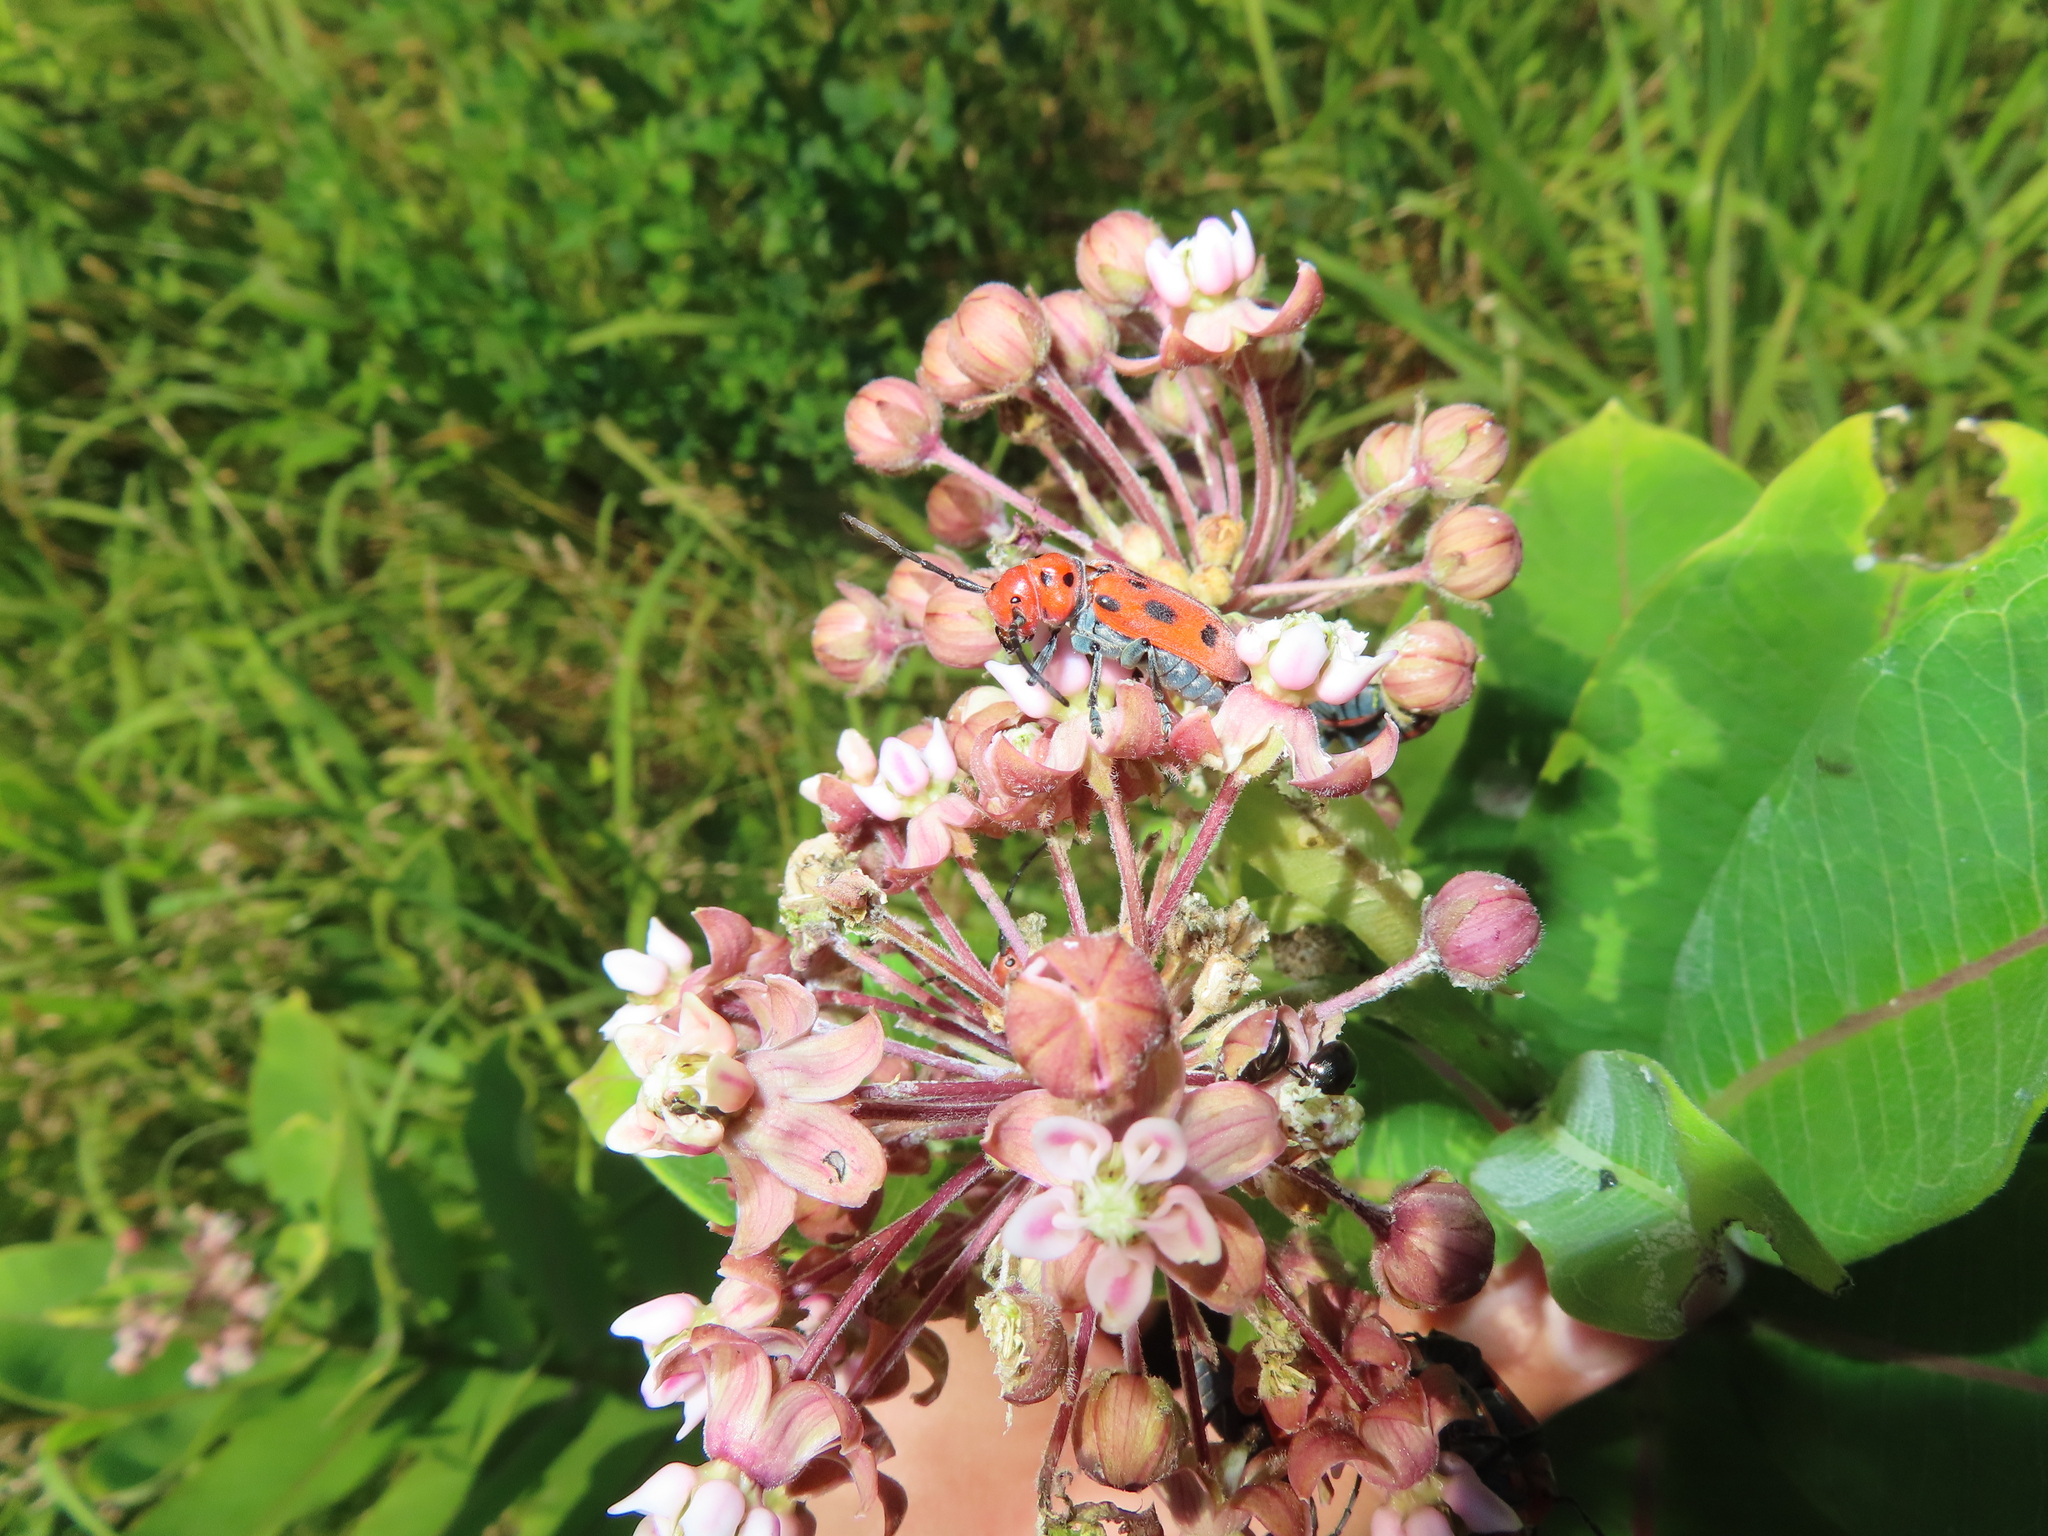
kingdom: Animalia
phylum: Arthropoda
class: Insecta
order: Coleoptera
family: Cerambycidae
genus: Tetraopes
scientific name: Tetraopes tetrophthalmus
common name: Red milkweed beetle
